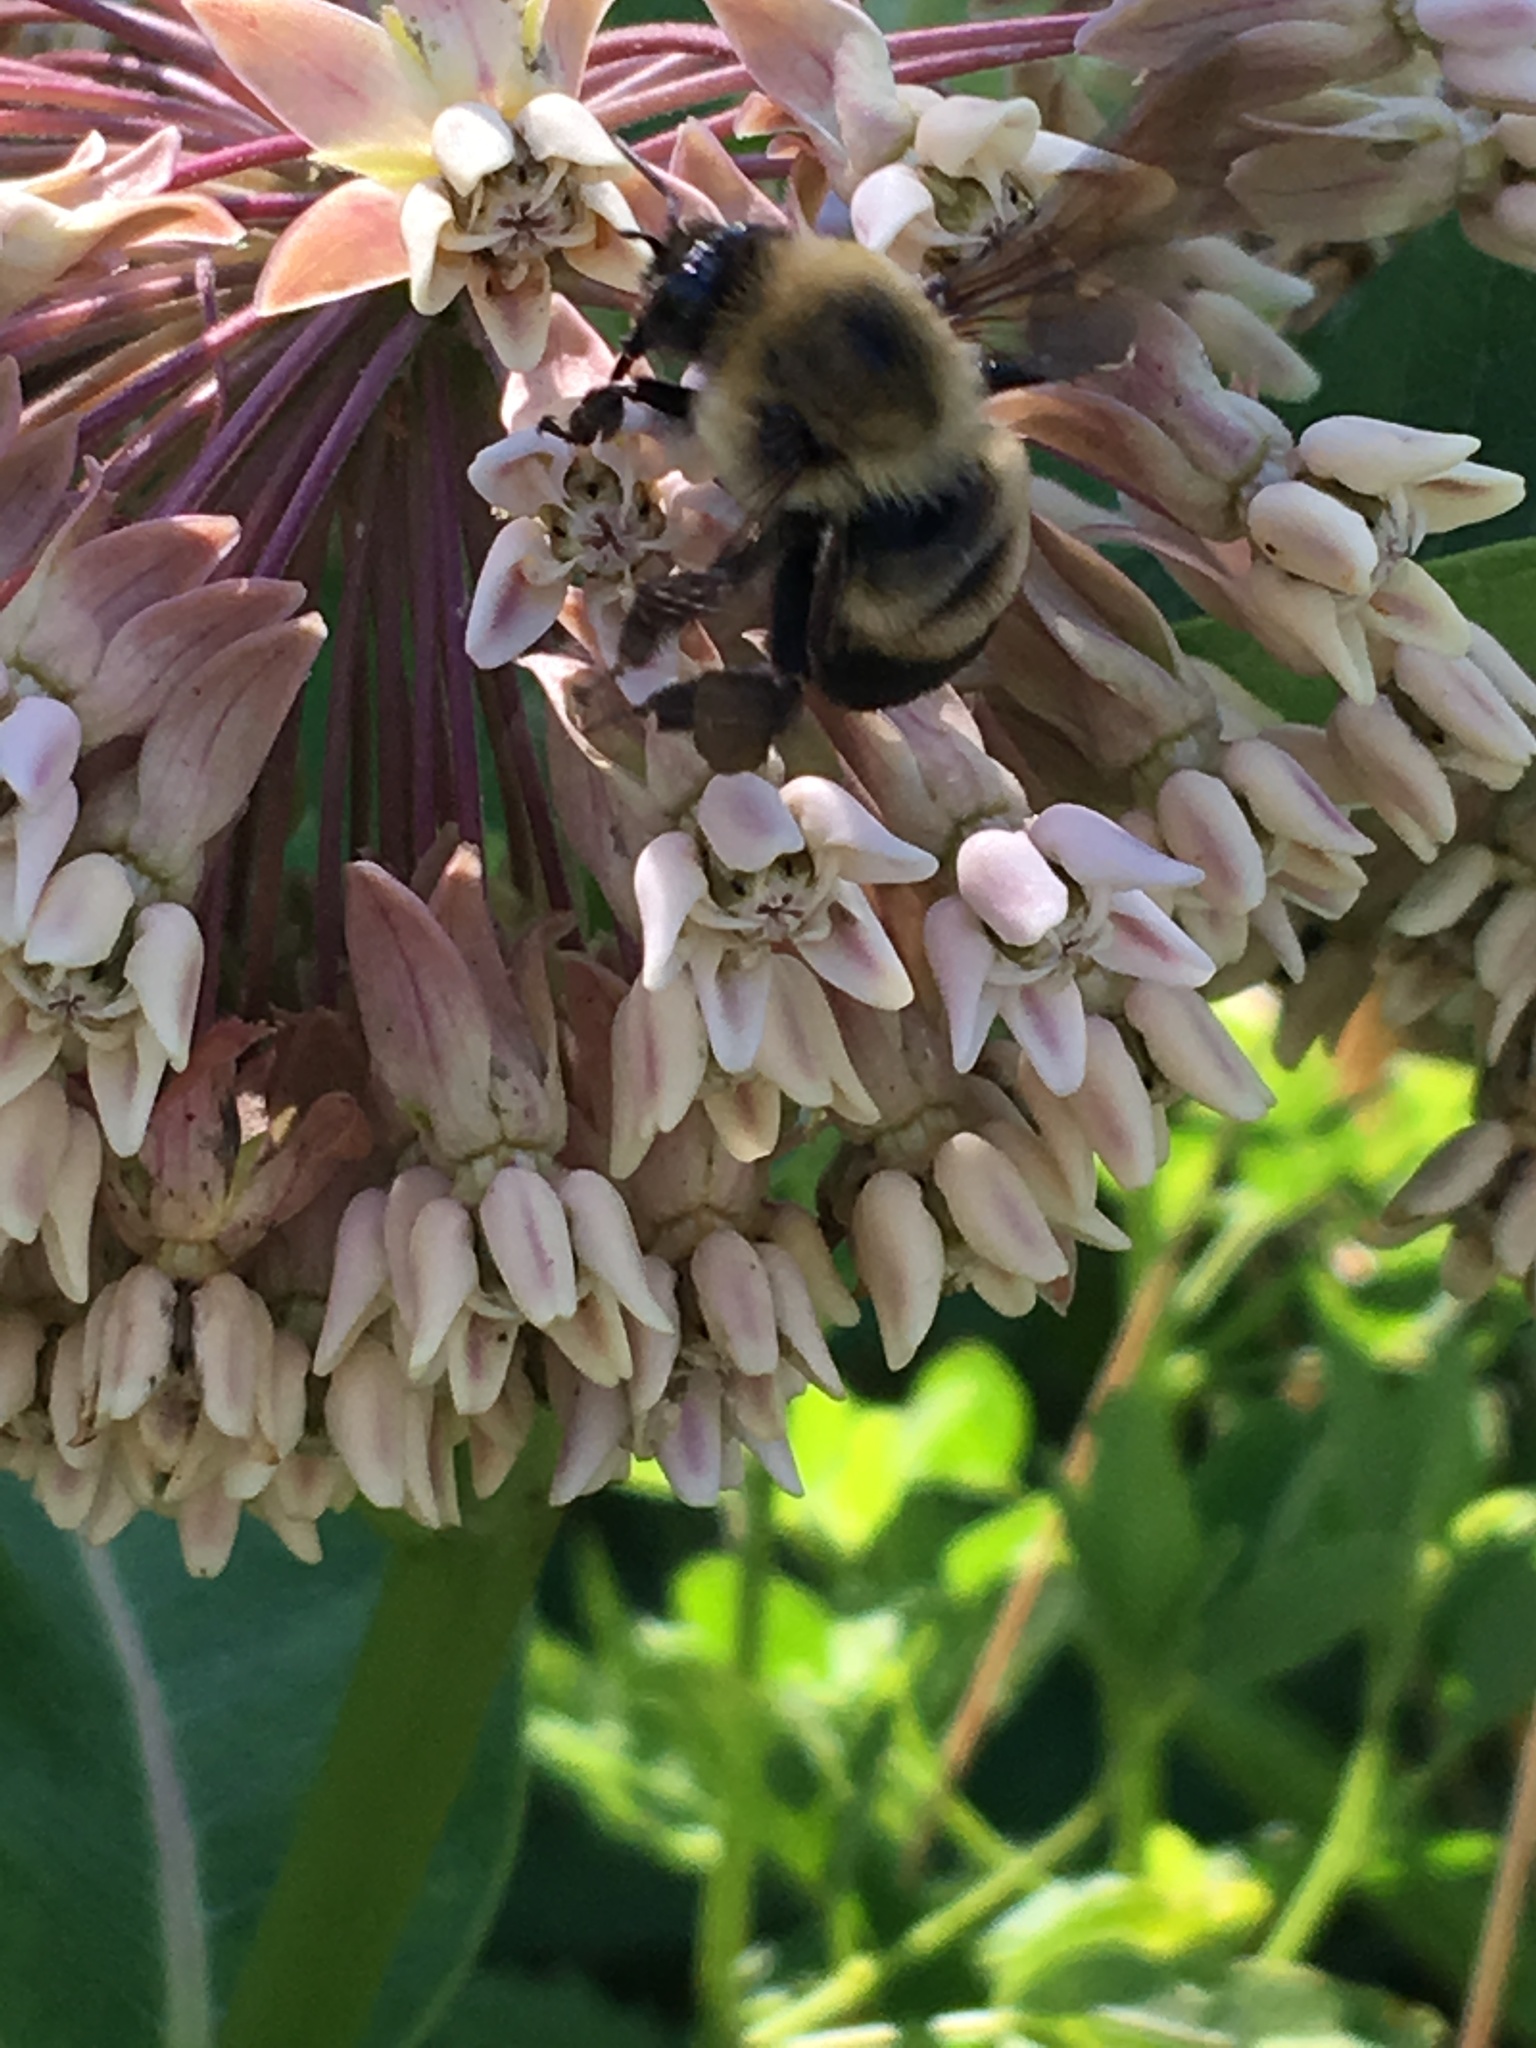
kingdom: Animalia
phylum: Arthropoda
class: Insecta
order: Hymenoptera
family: Apidae
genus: Bombus
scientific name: Bombus griseocollis
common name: Brown-belted bumble bee
